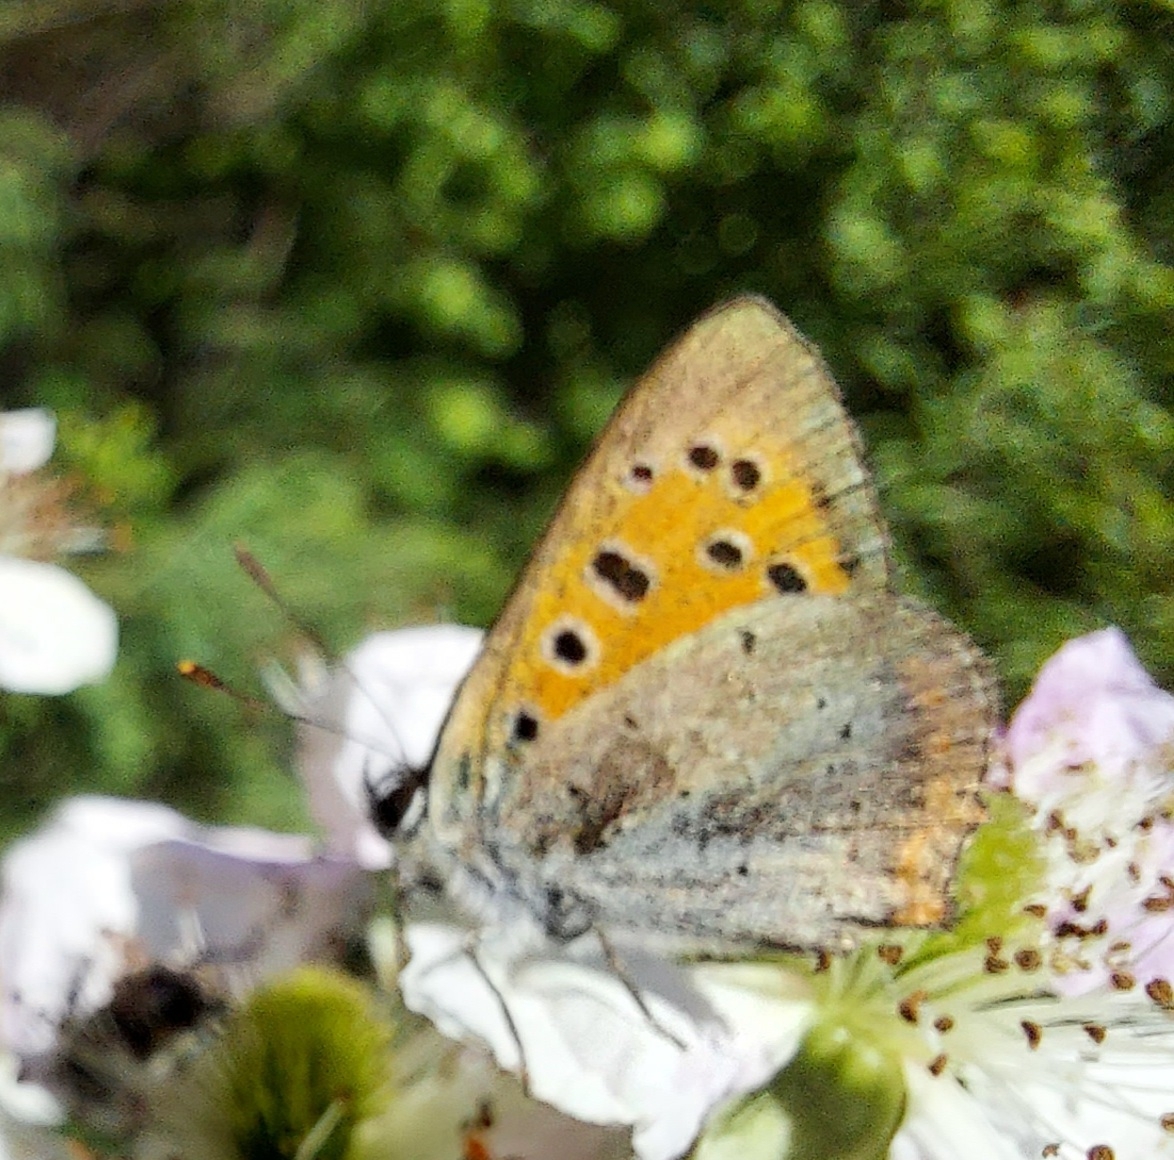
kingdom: Animalia
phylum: Arthropoda
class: Insecta
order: Lepidoptera
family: Lycaenidae
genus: Lycaena
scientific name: Lycaena phlaeas
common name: Small copper
